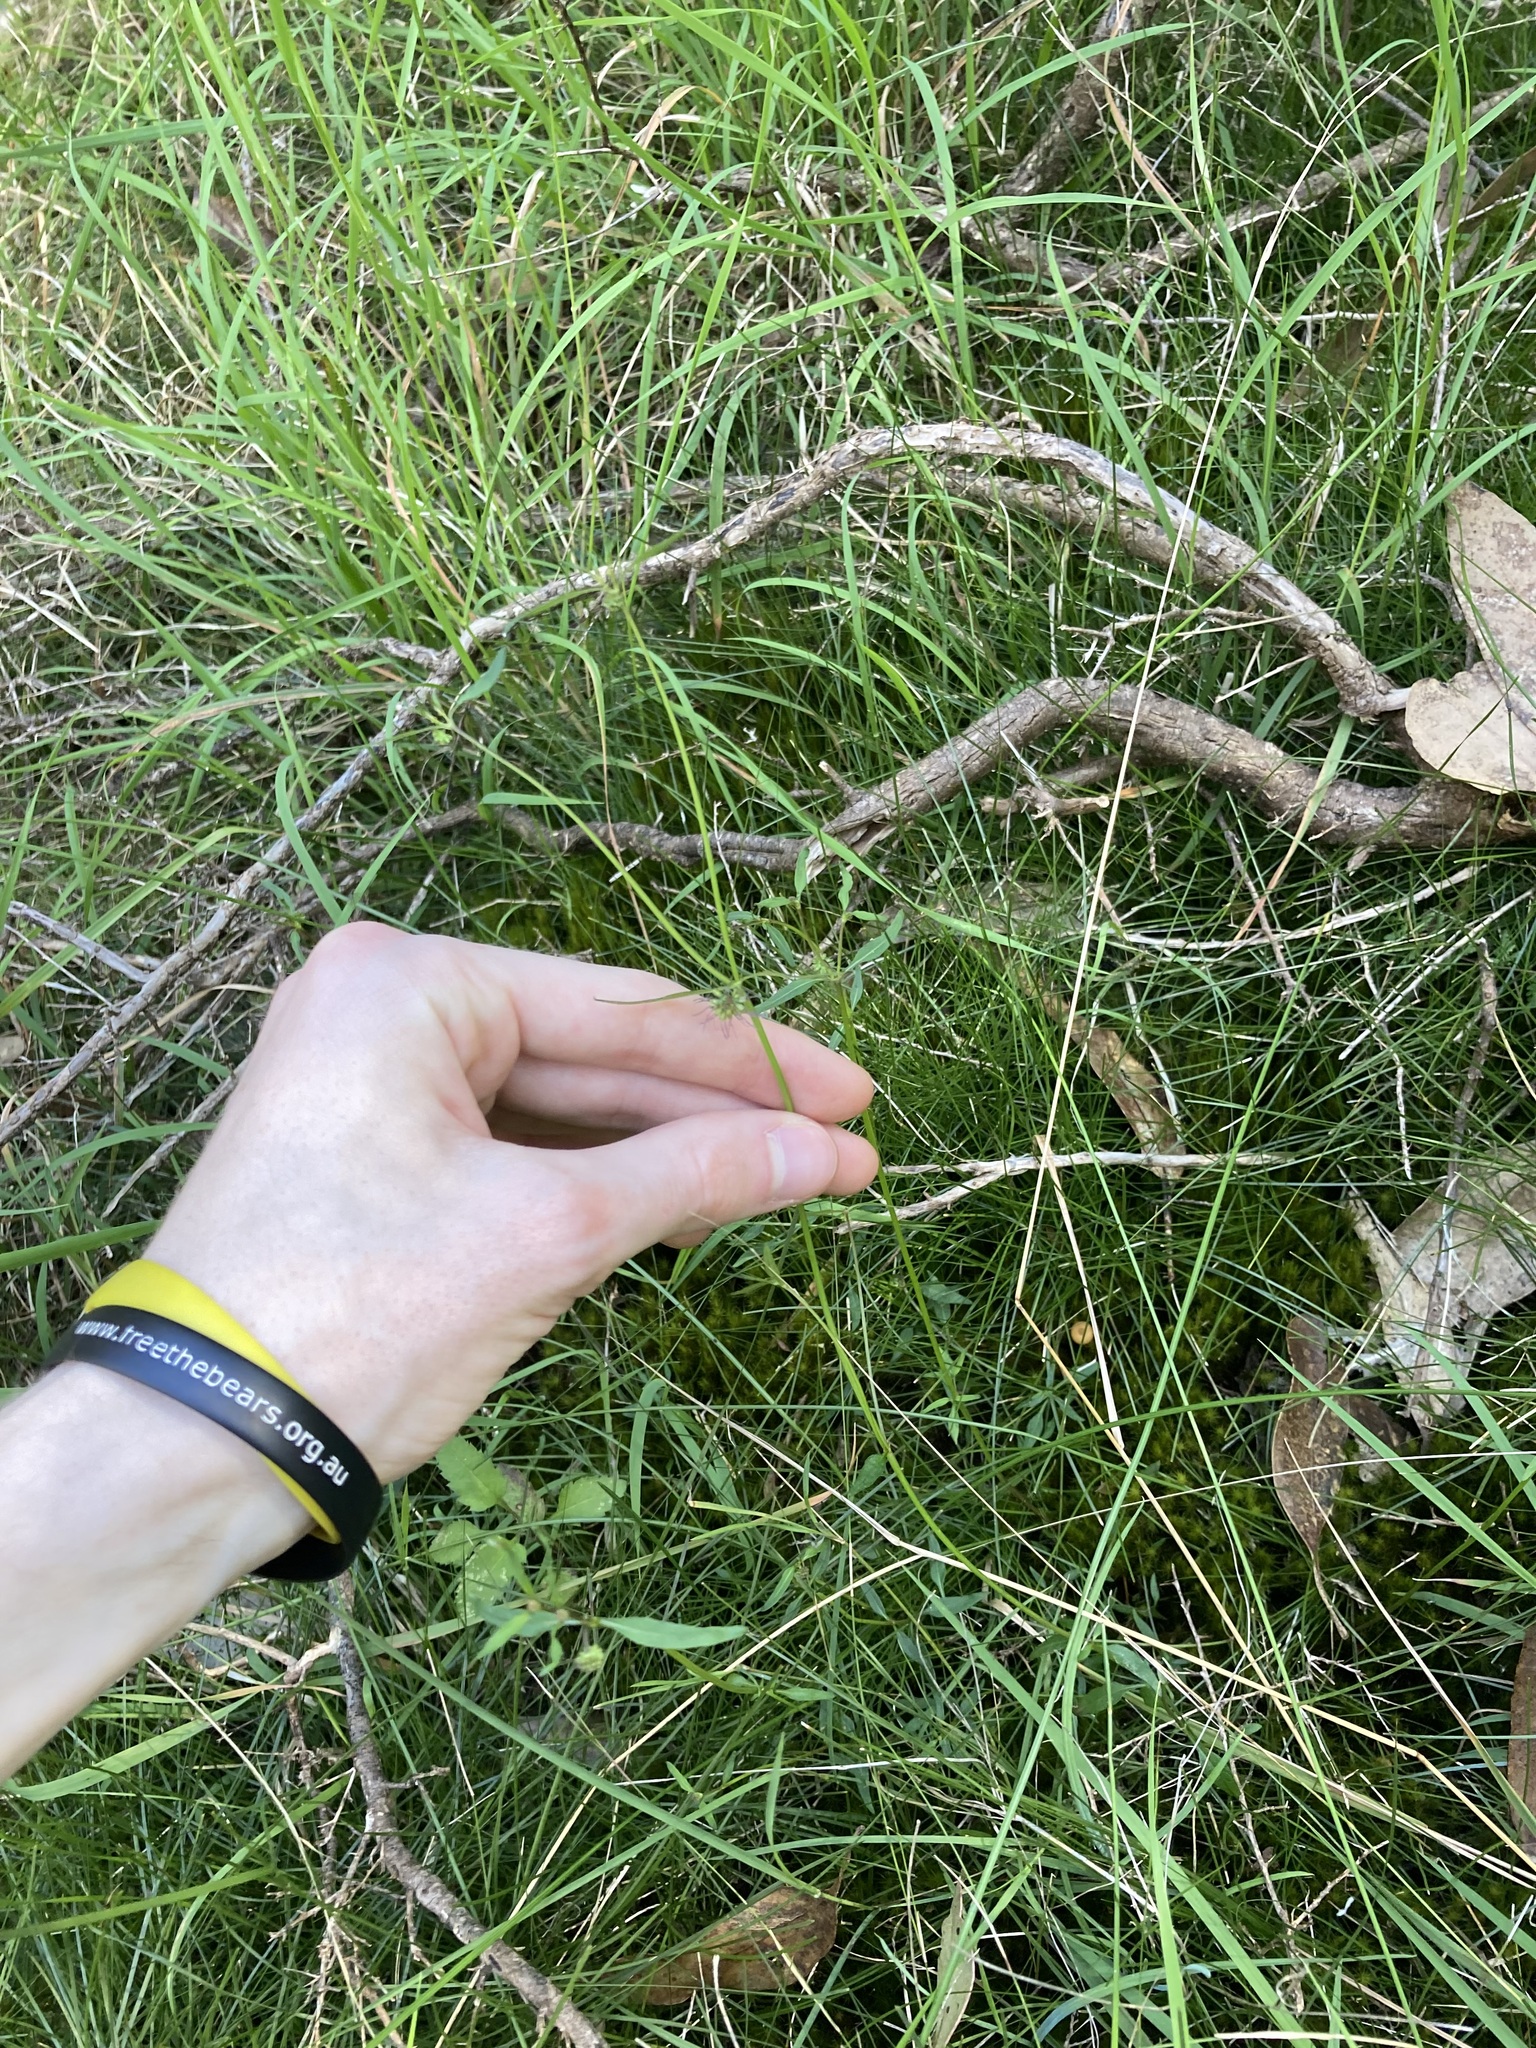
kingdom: Plantae
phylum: Tracheophyta
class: Magnoliopsida
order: Gentianales
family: Rubiaceae
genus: Opercularia
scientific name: Opercularia diphylla
